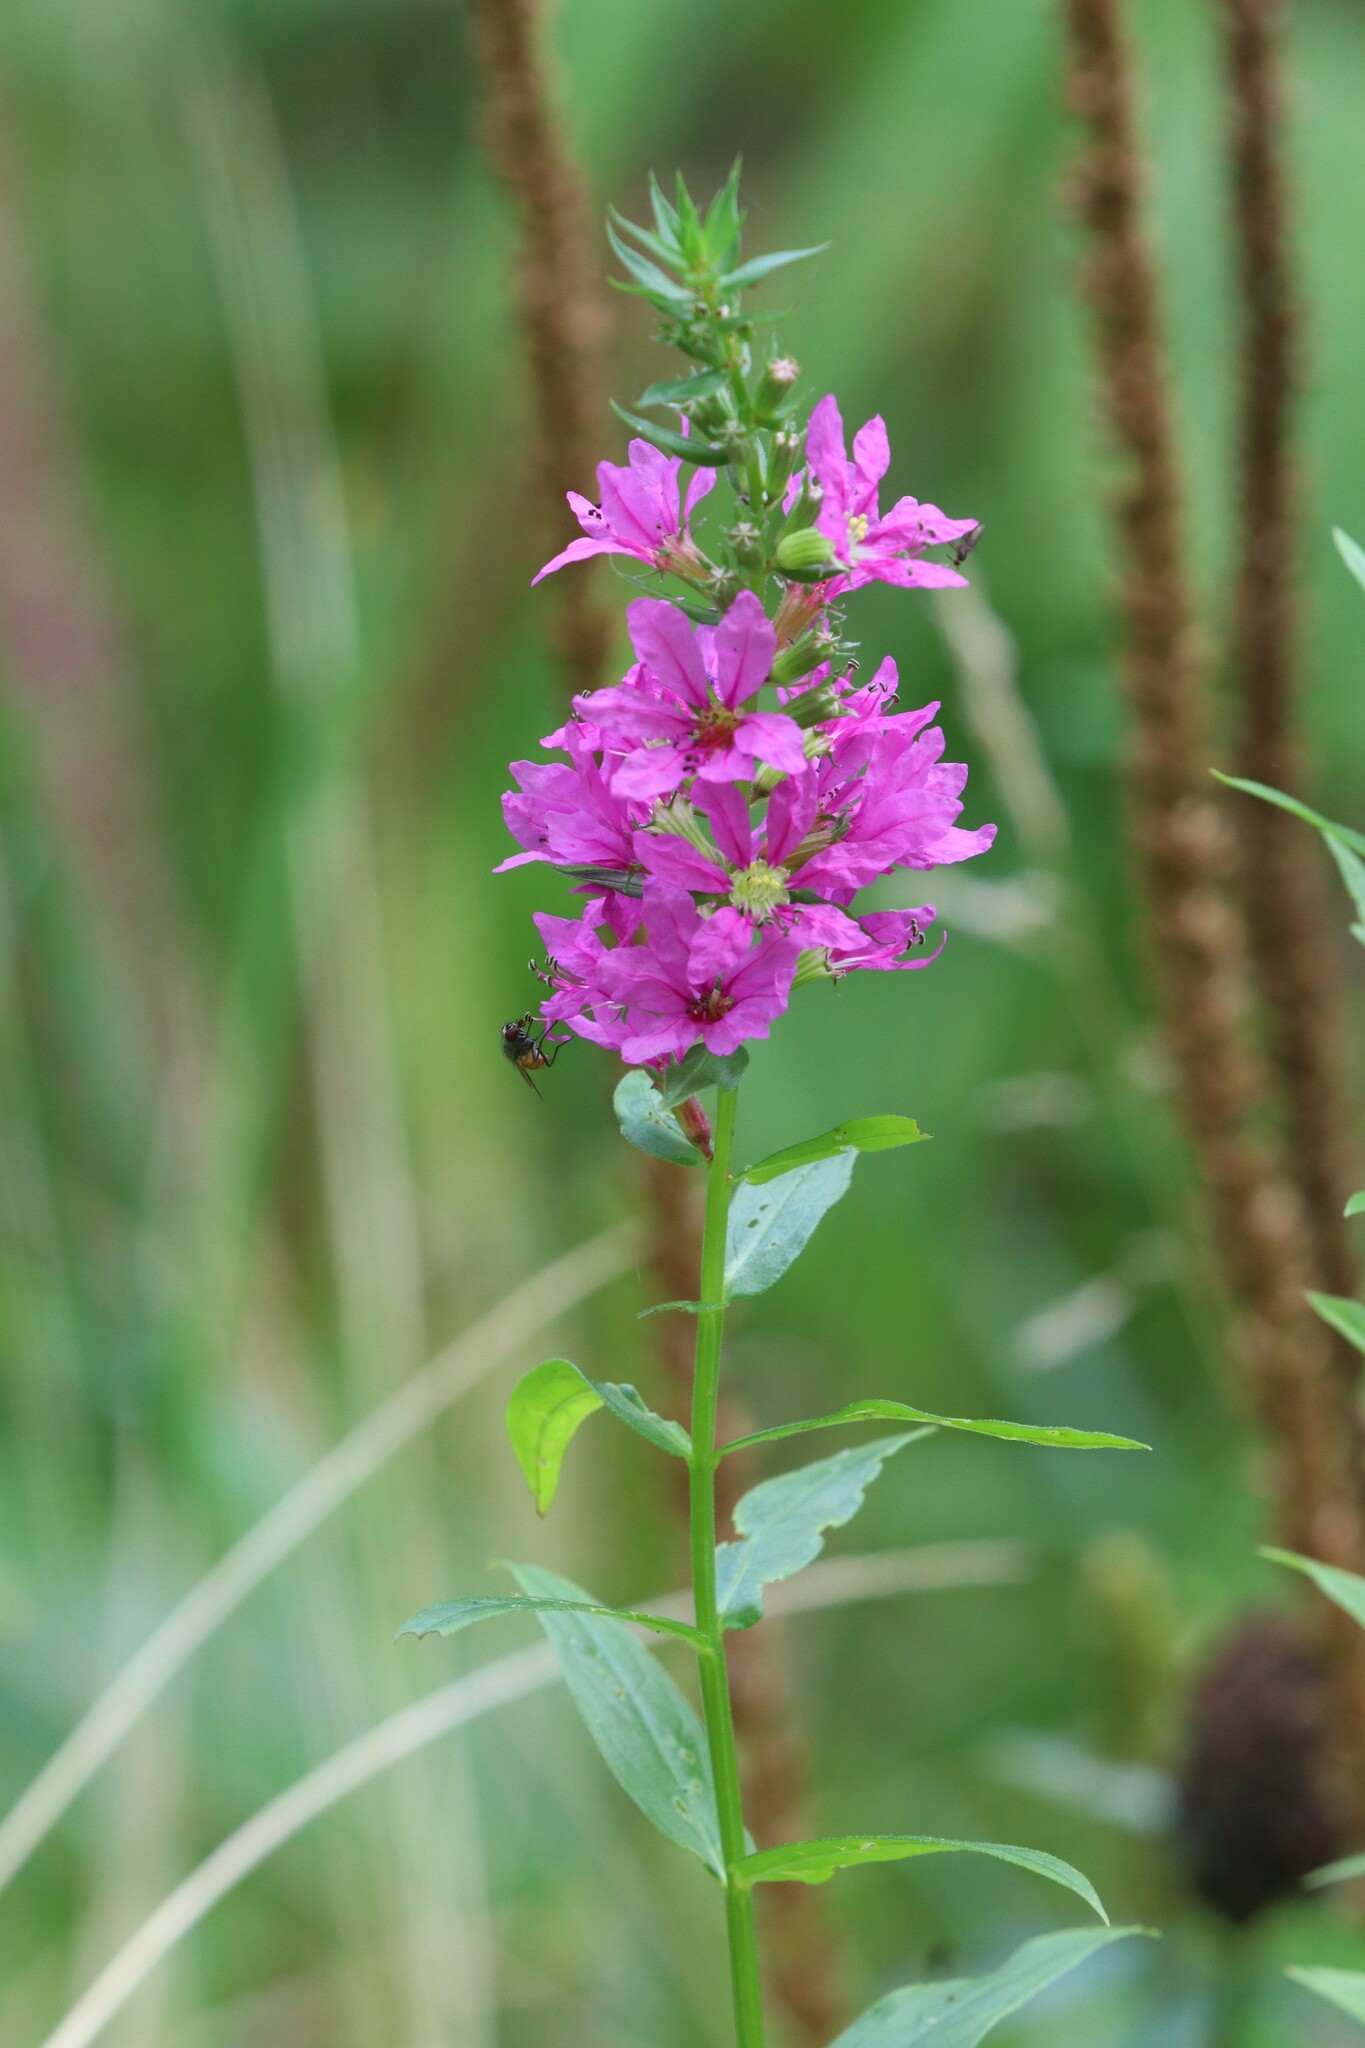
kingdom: Plantae
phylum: Tracheophyta
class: Magnoliopsida
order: Myrtales
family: Lythraceae
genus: Lythrum
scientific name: Lythrum salicaria
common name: Purple loosestrife
